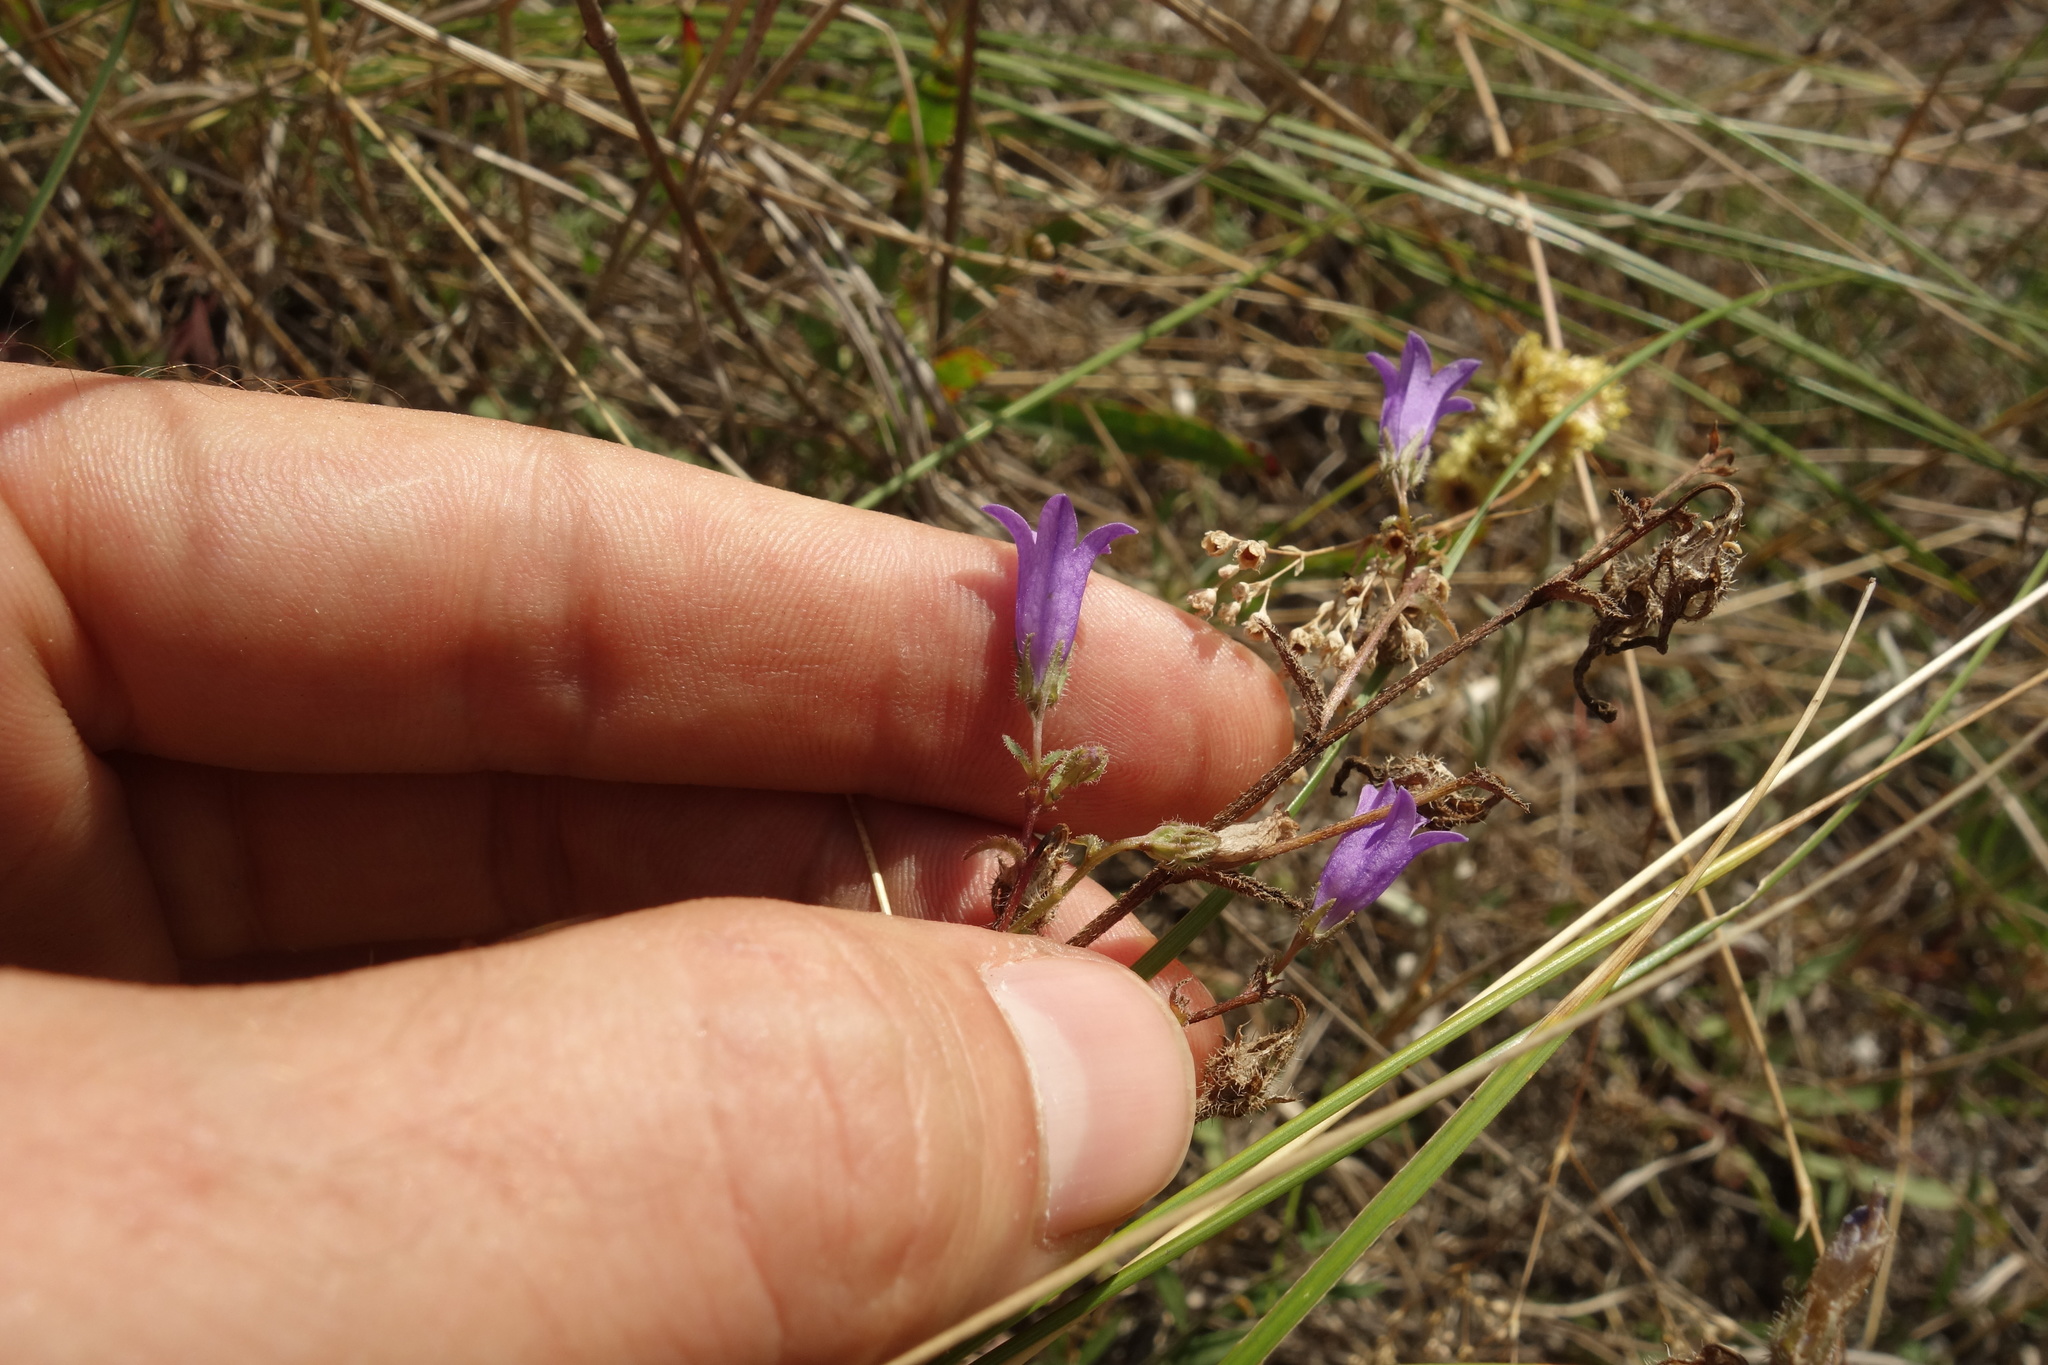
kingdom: Plantae
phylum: Tracheophyta
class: Magnoliopsida
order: Asterales
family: Campanulaceae
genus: Campanula
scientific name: Campanula sibirica
